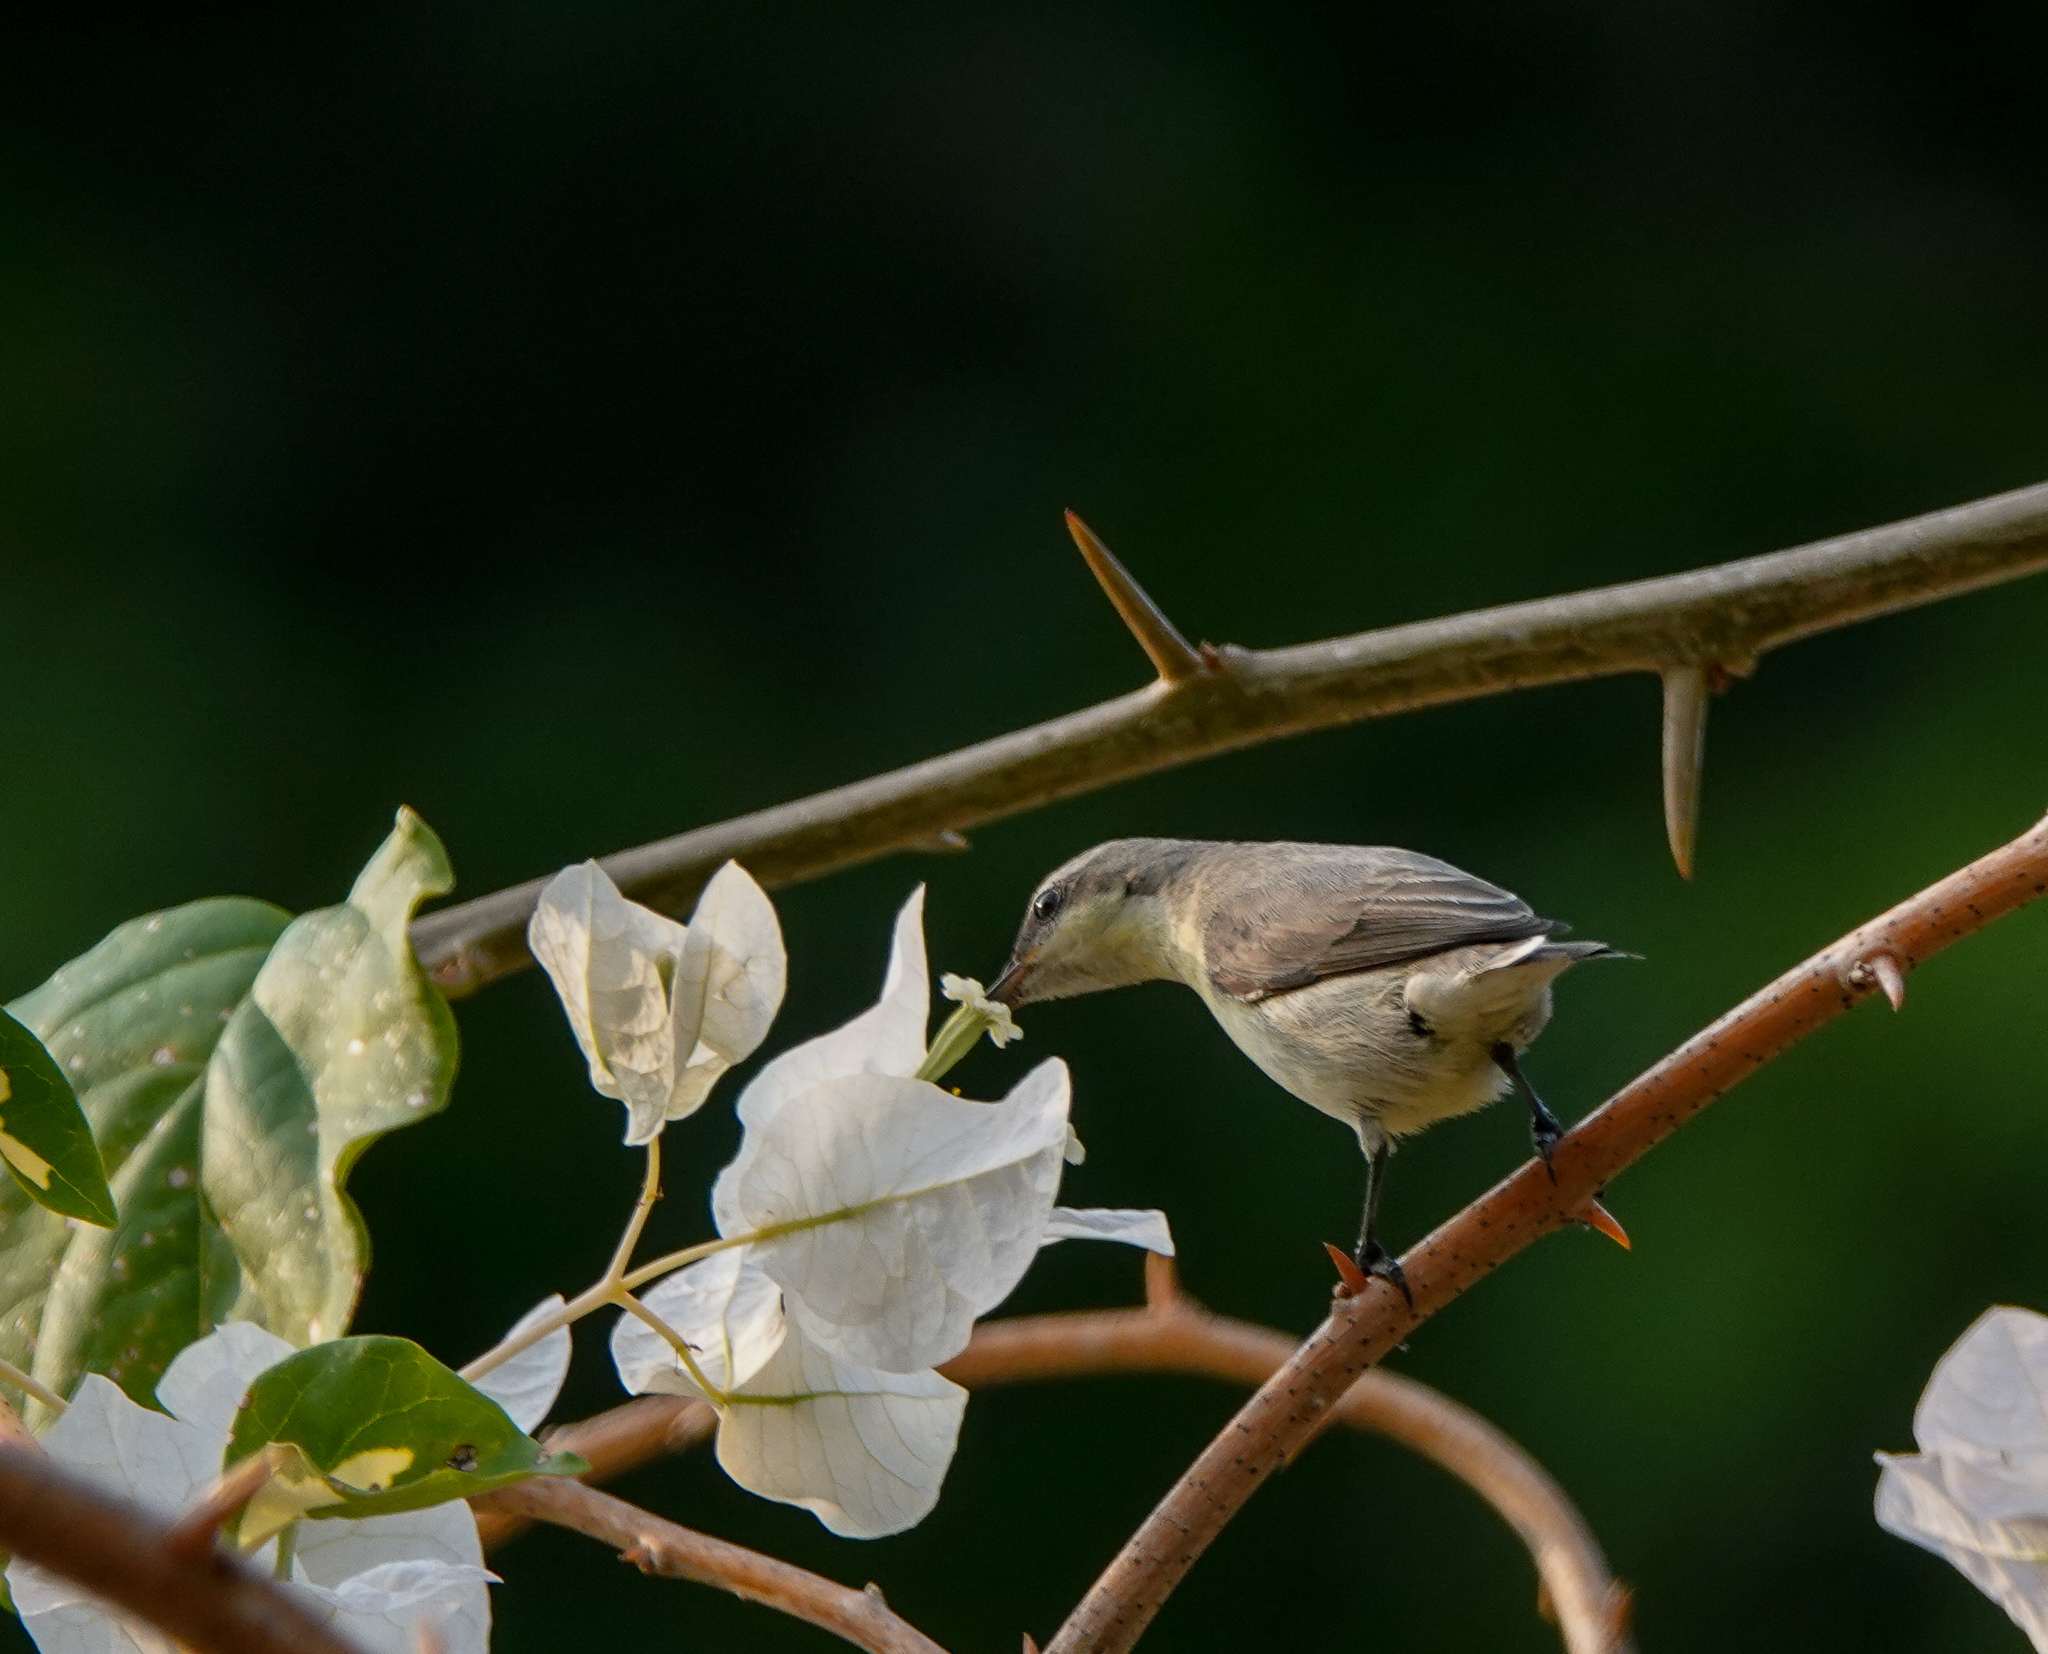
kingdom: Animalia
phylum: Chordata
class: Aves
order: Passeriformes
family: Nectariniidae
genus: Cinnyris
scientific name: Cinnyris asiaticus
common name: Purple sunbird
